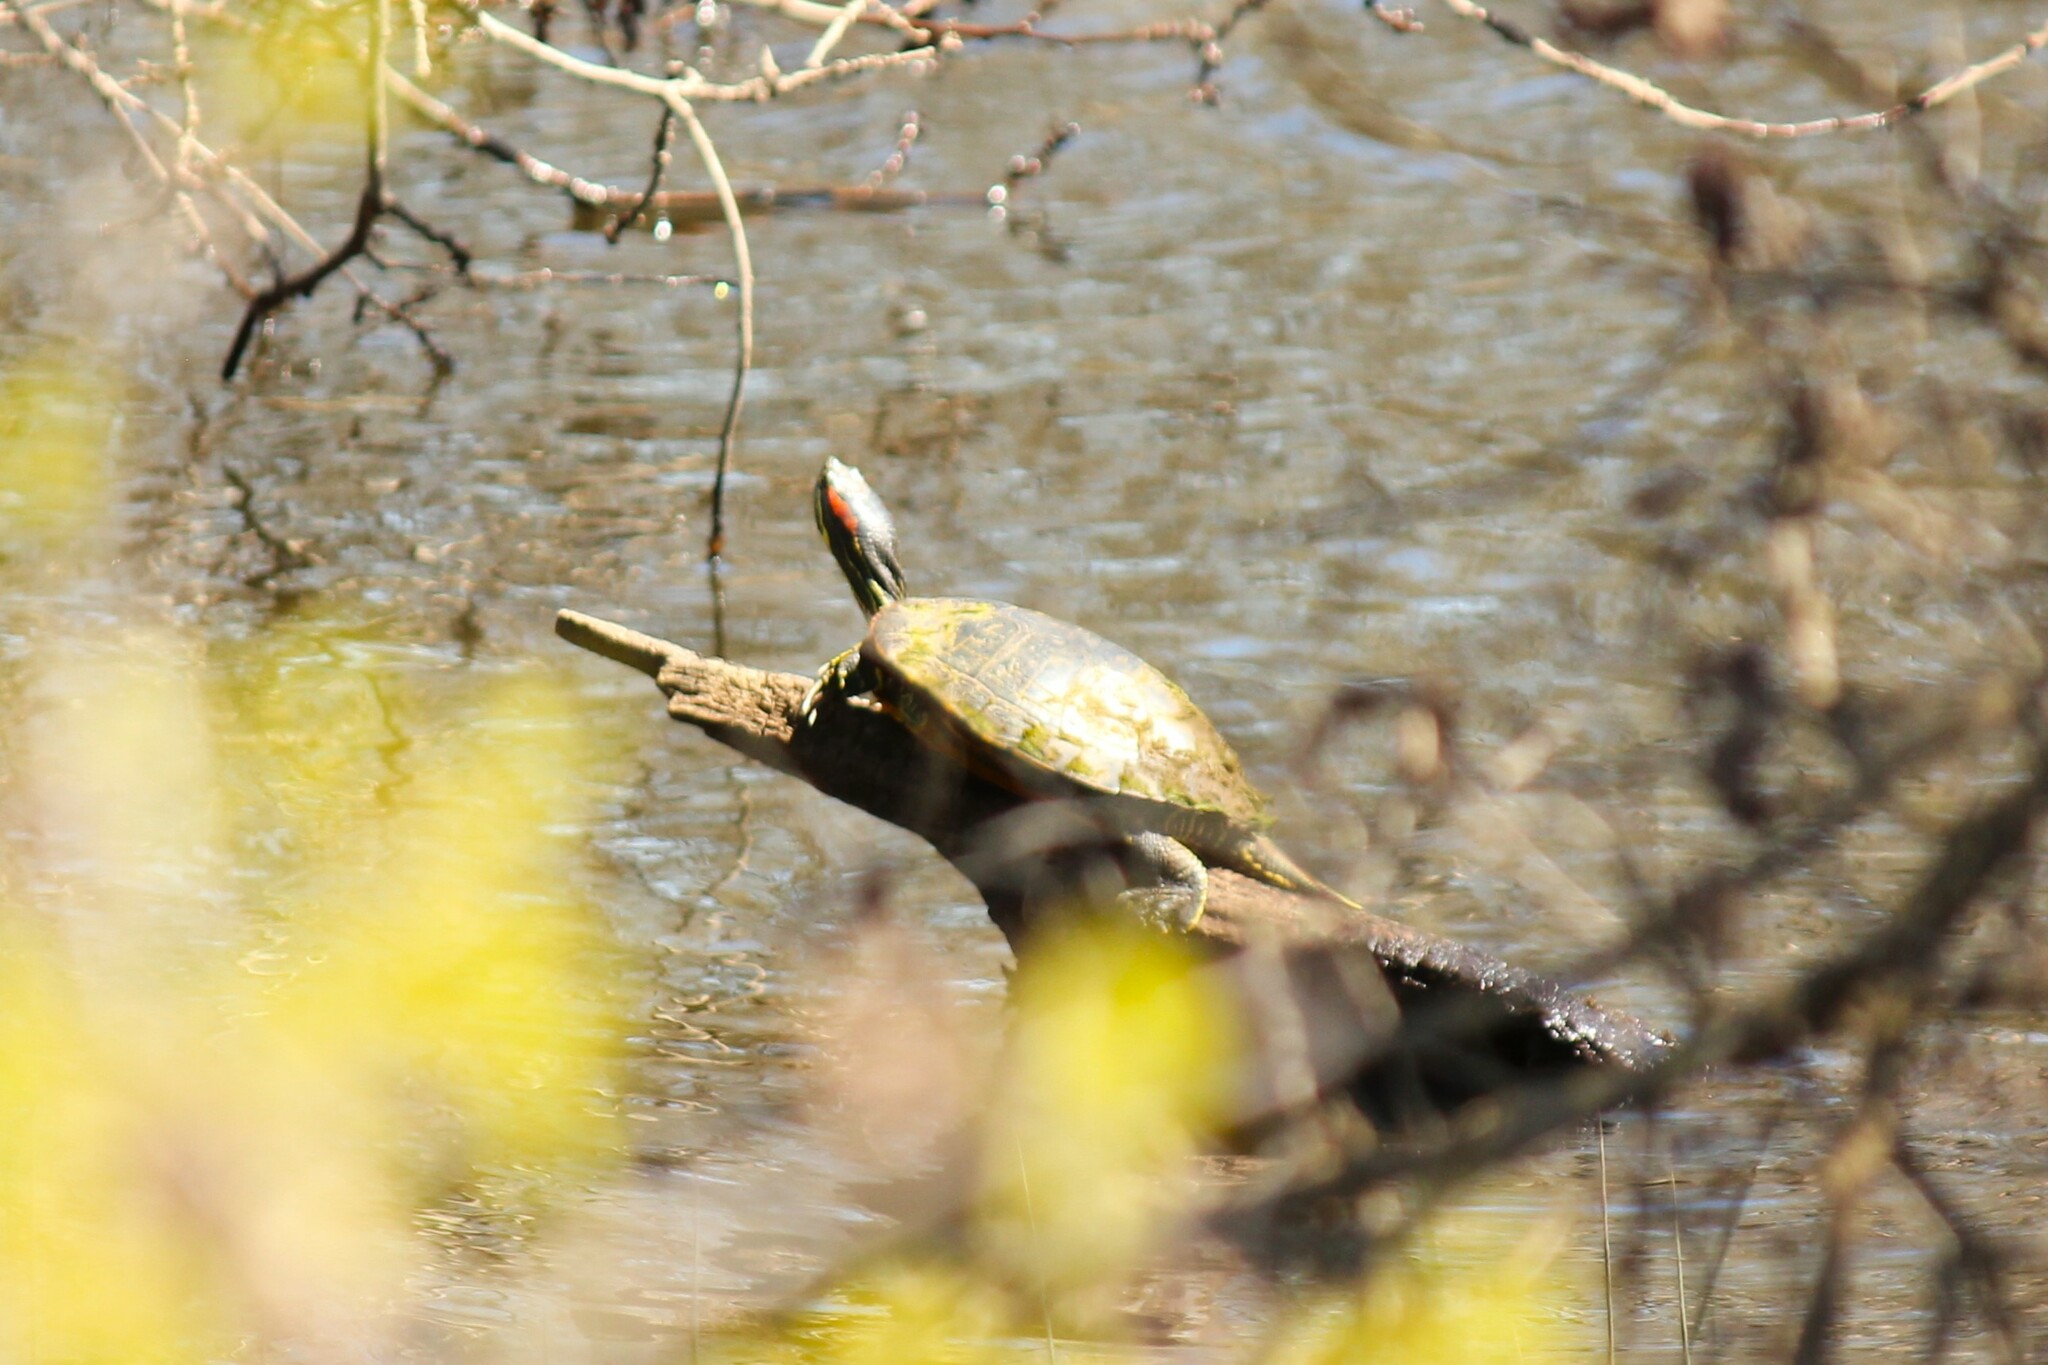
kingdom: Animalia
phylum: Chordata
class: Testudines
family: Emydidae
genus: Trachemys
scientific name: Trachemys scripta
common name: Slider
